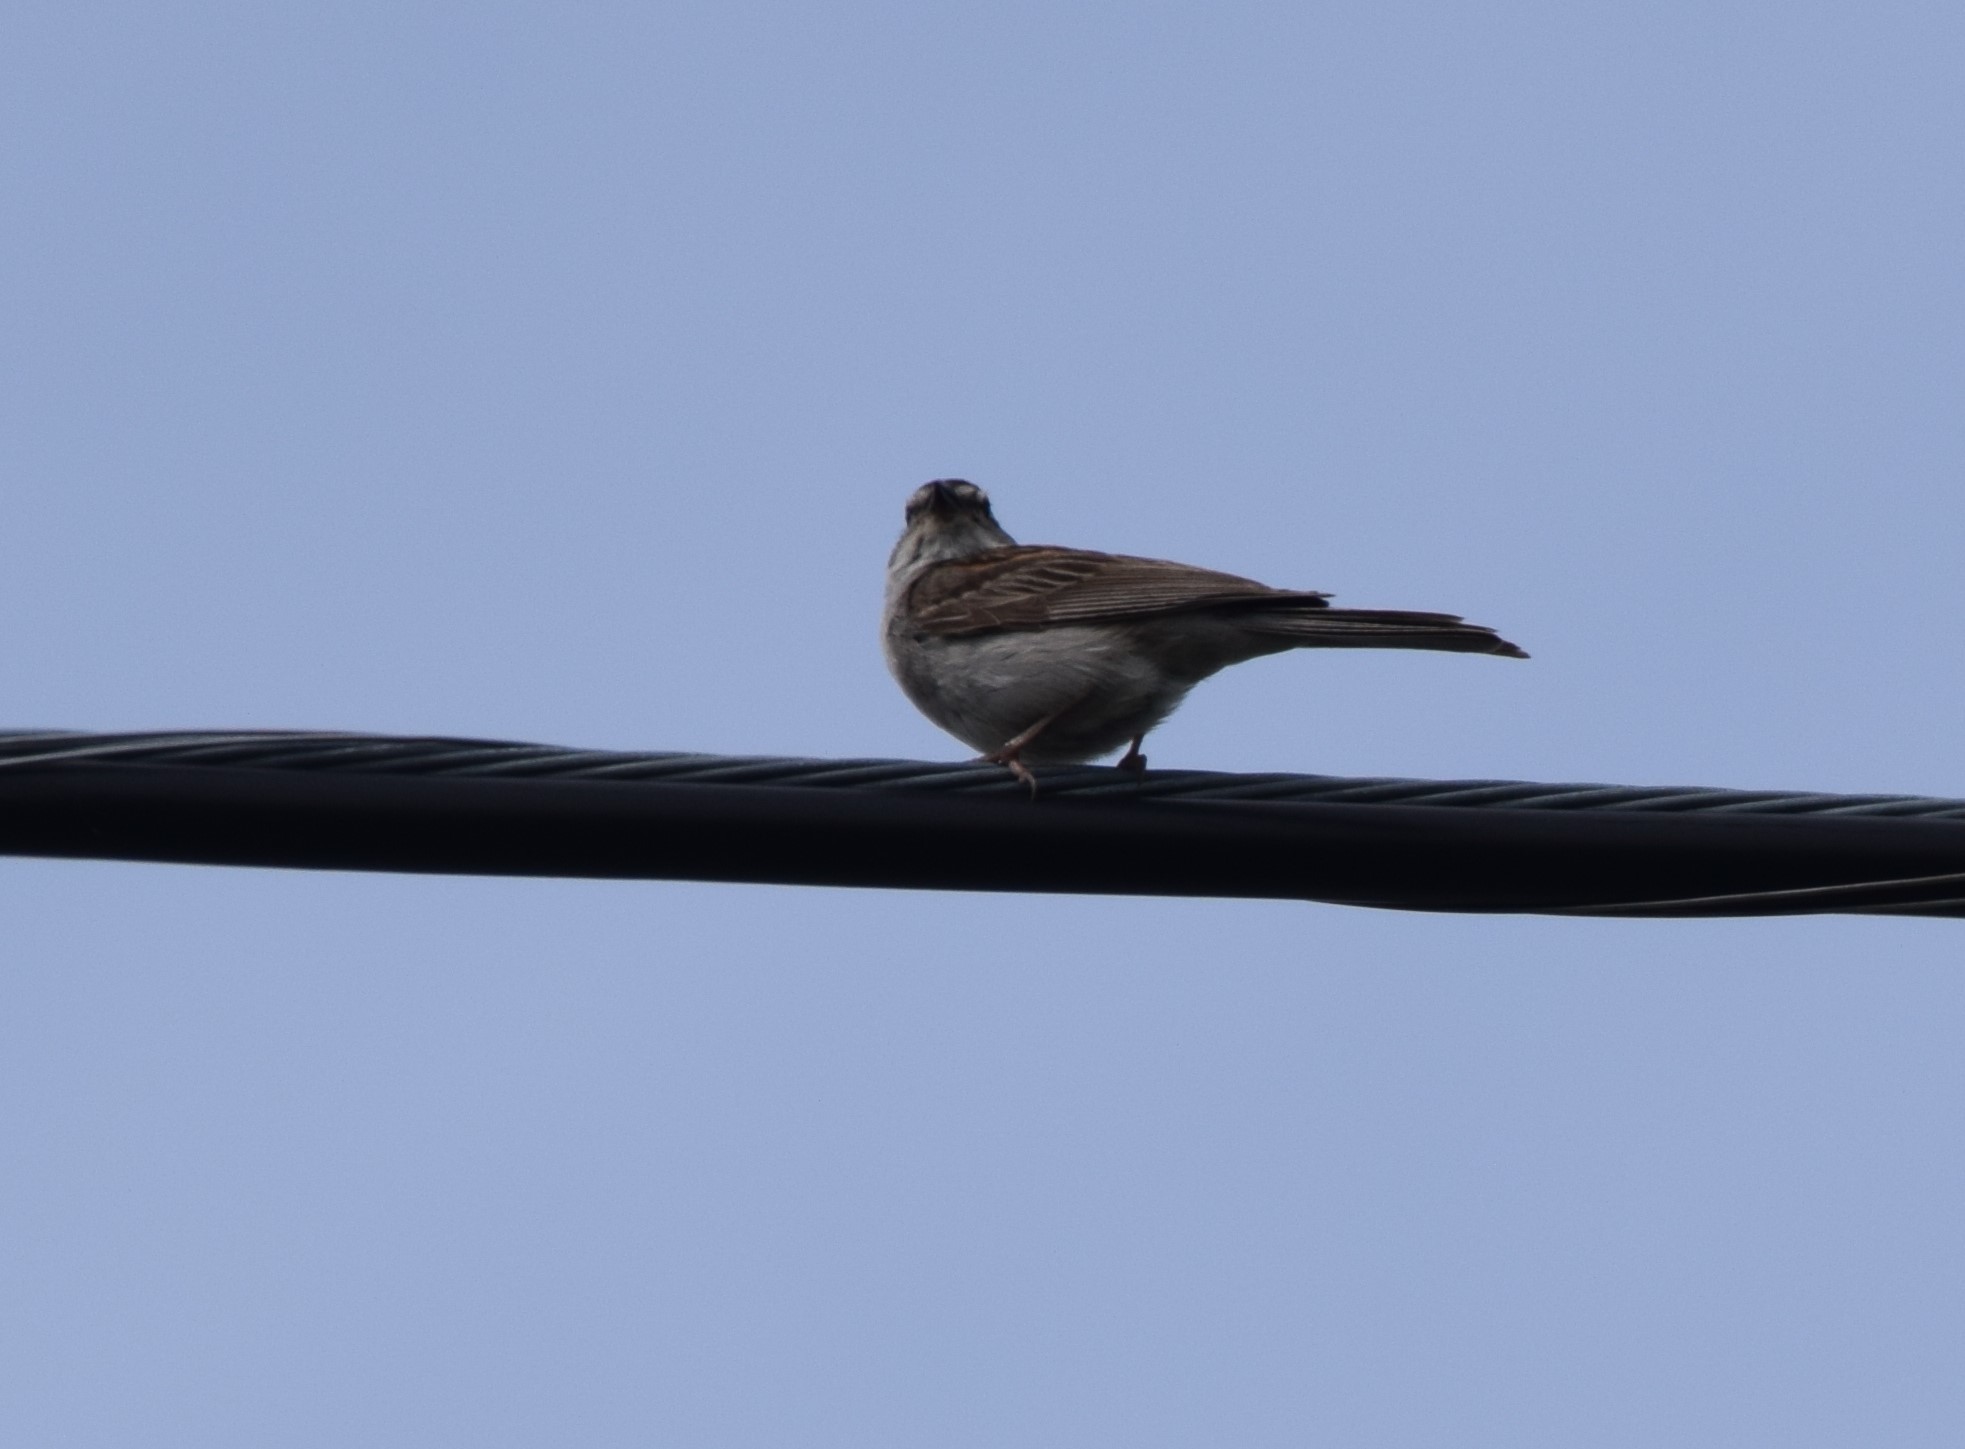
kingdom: Animalia
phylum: Chordata
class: Aves
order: Passeriformes
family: Passerellidae
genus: Spizella
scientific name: Spizella passerina
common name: Chipping sparrow
